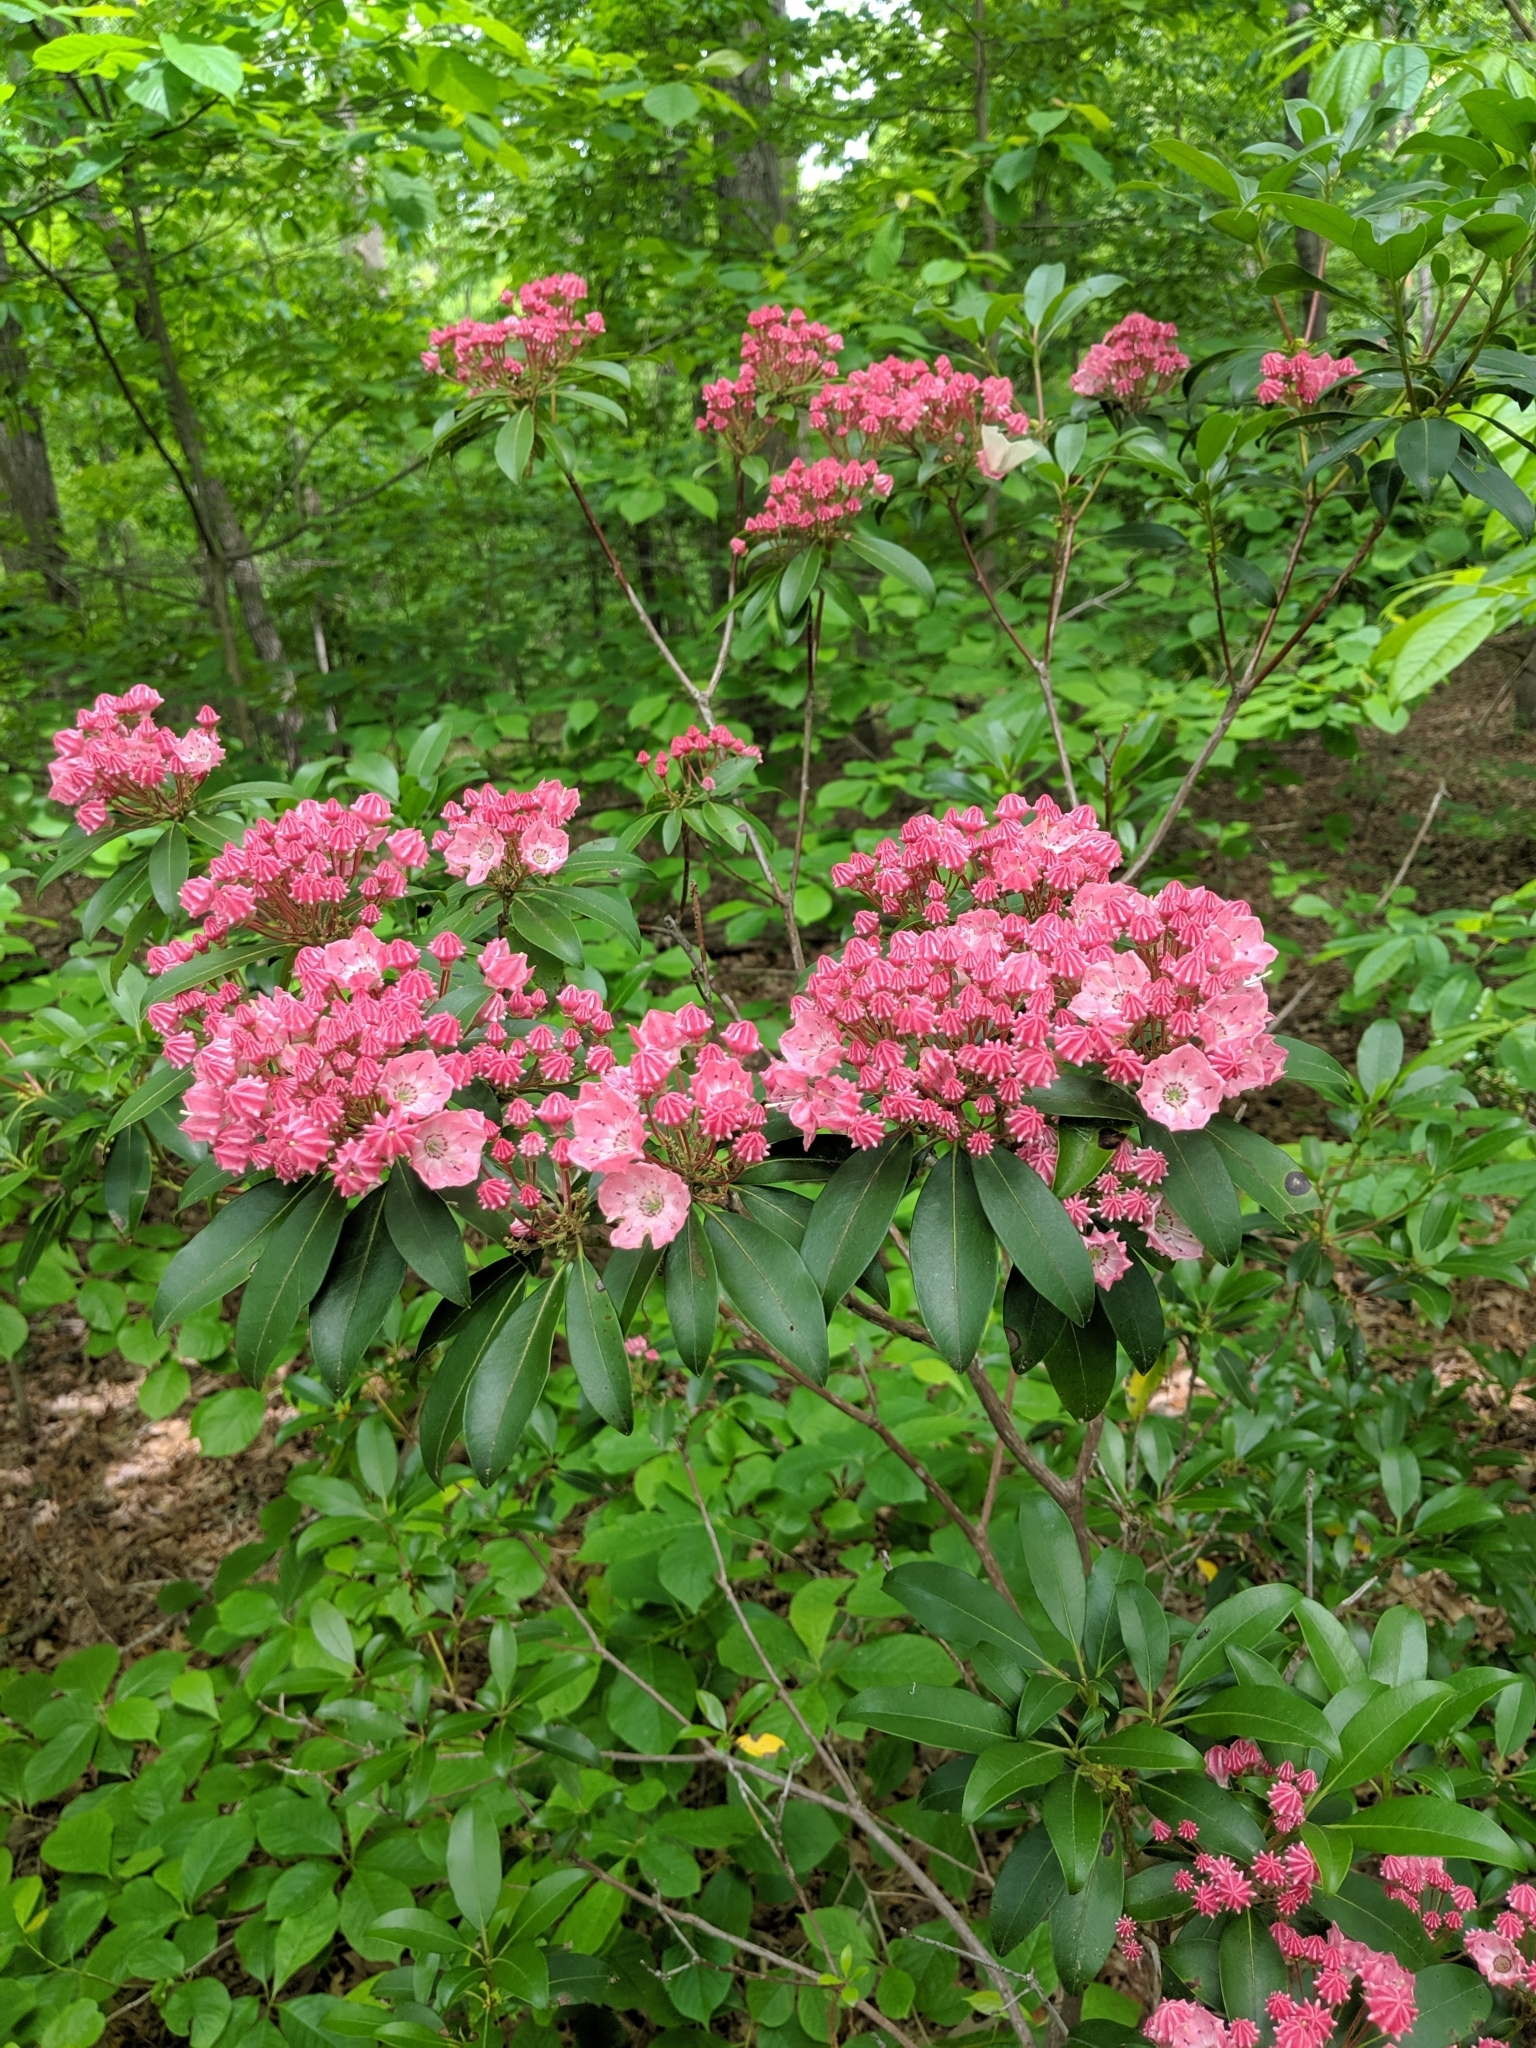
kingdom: Plantae
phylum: Tracheophyta
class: Magnoliopsida
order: Ericales
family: Ericaceae
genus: Kalmia
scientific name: Kalmia latifolia
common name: Mountain-laurel
